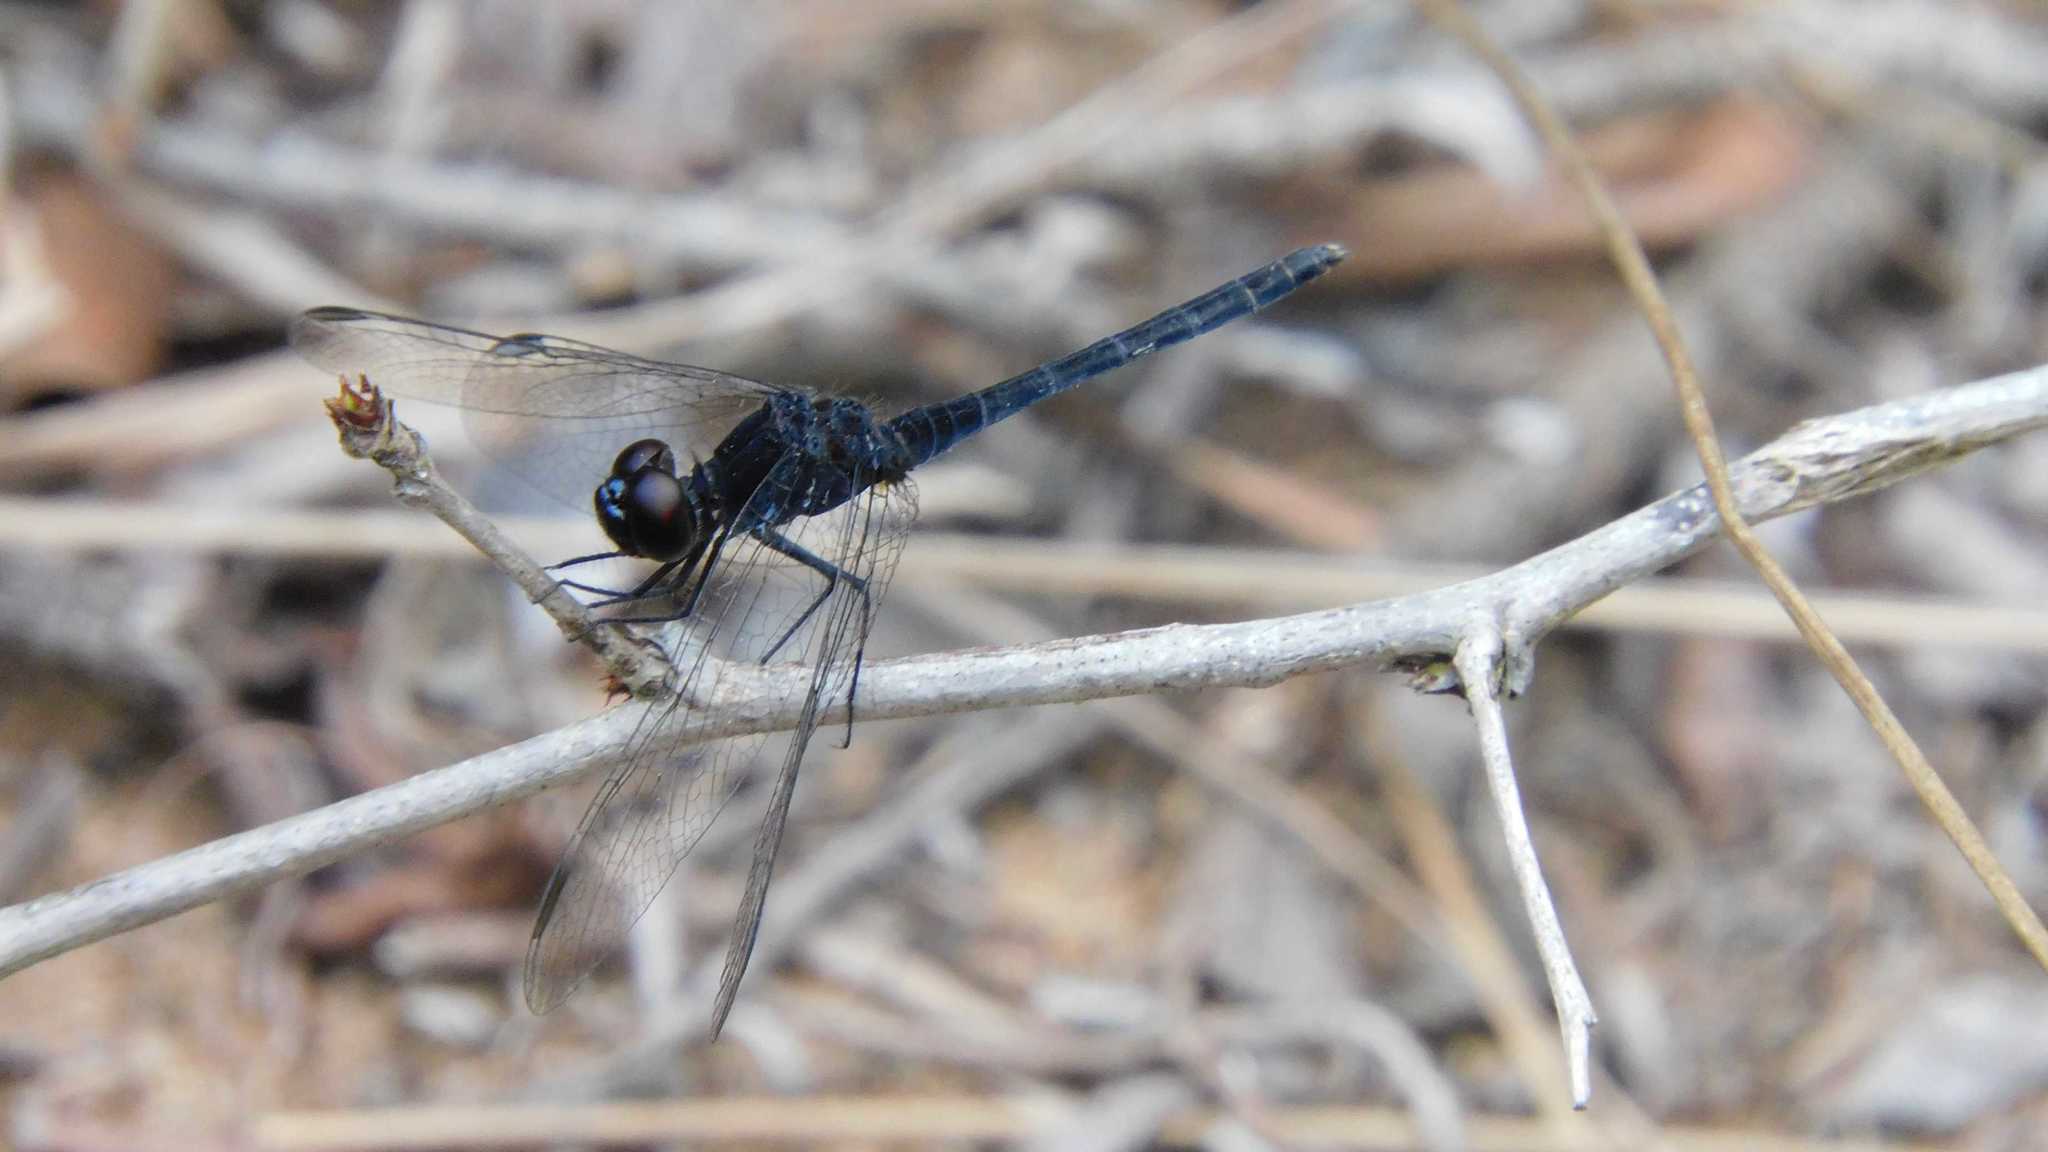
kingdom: Animalia
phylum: Arthropoda
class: Insecta
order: Odonata
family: Libellulidae
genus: Diplacodes
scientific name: Diplacodes lefebvrii
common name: Black percher
